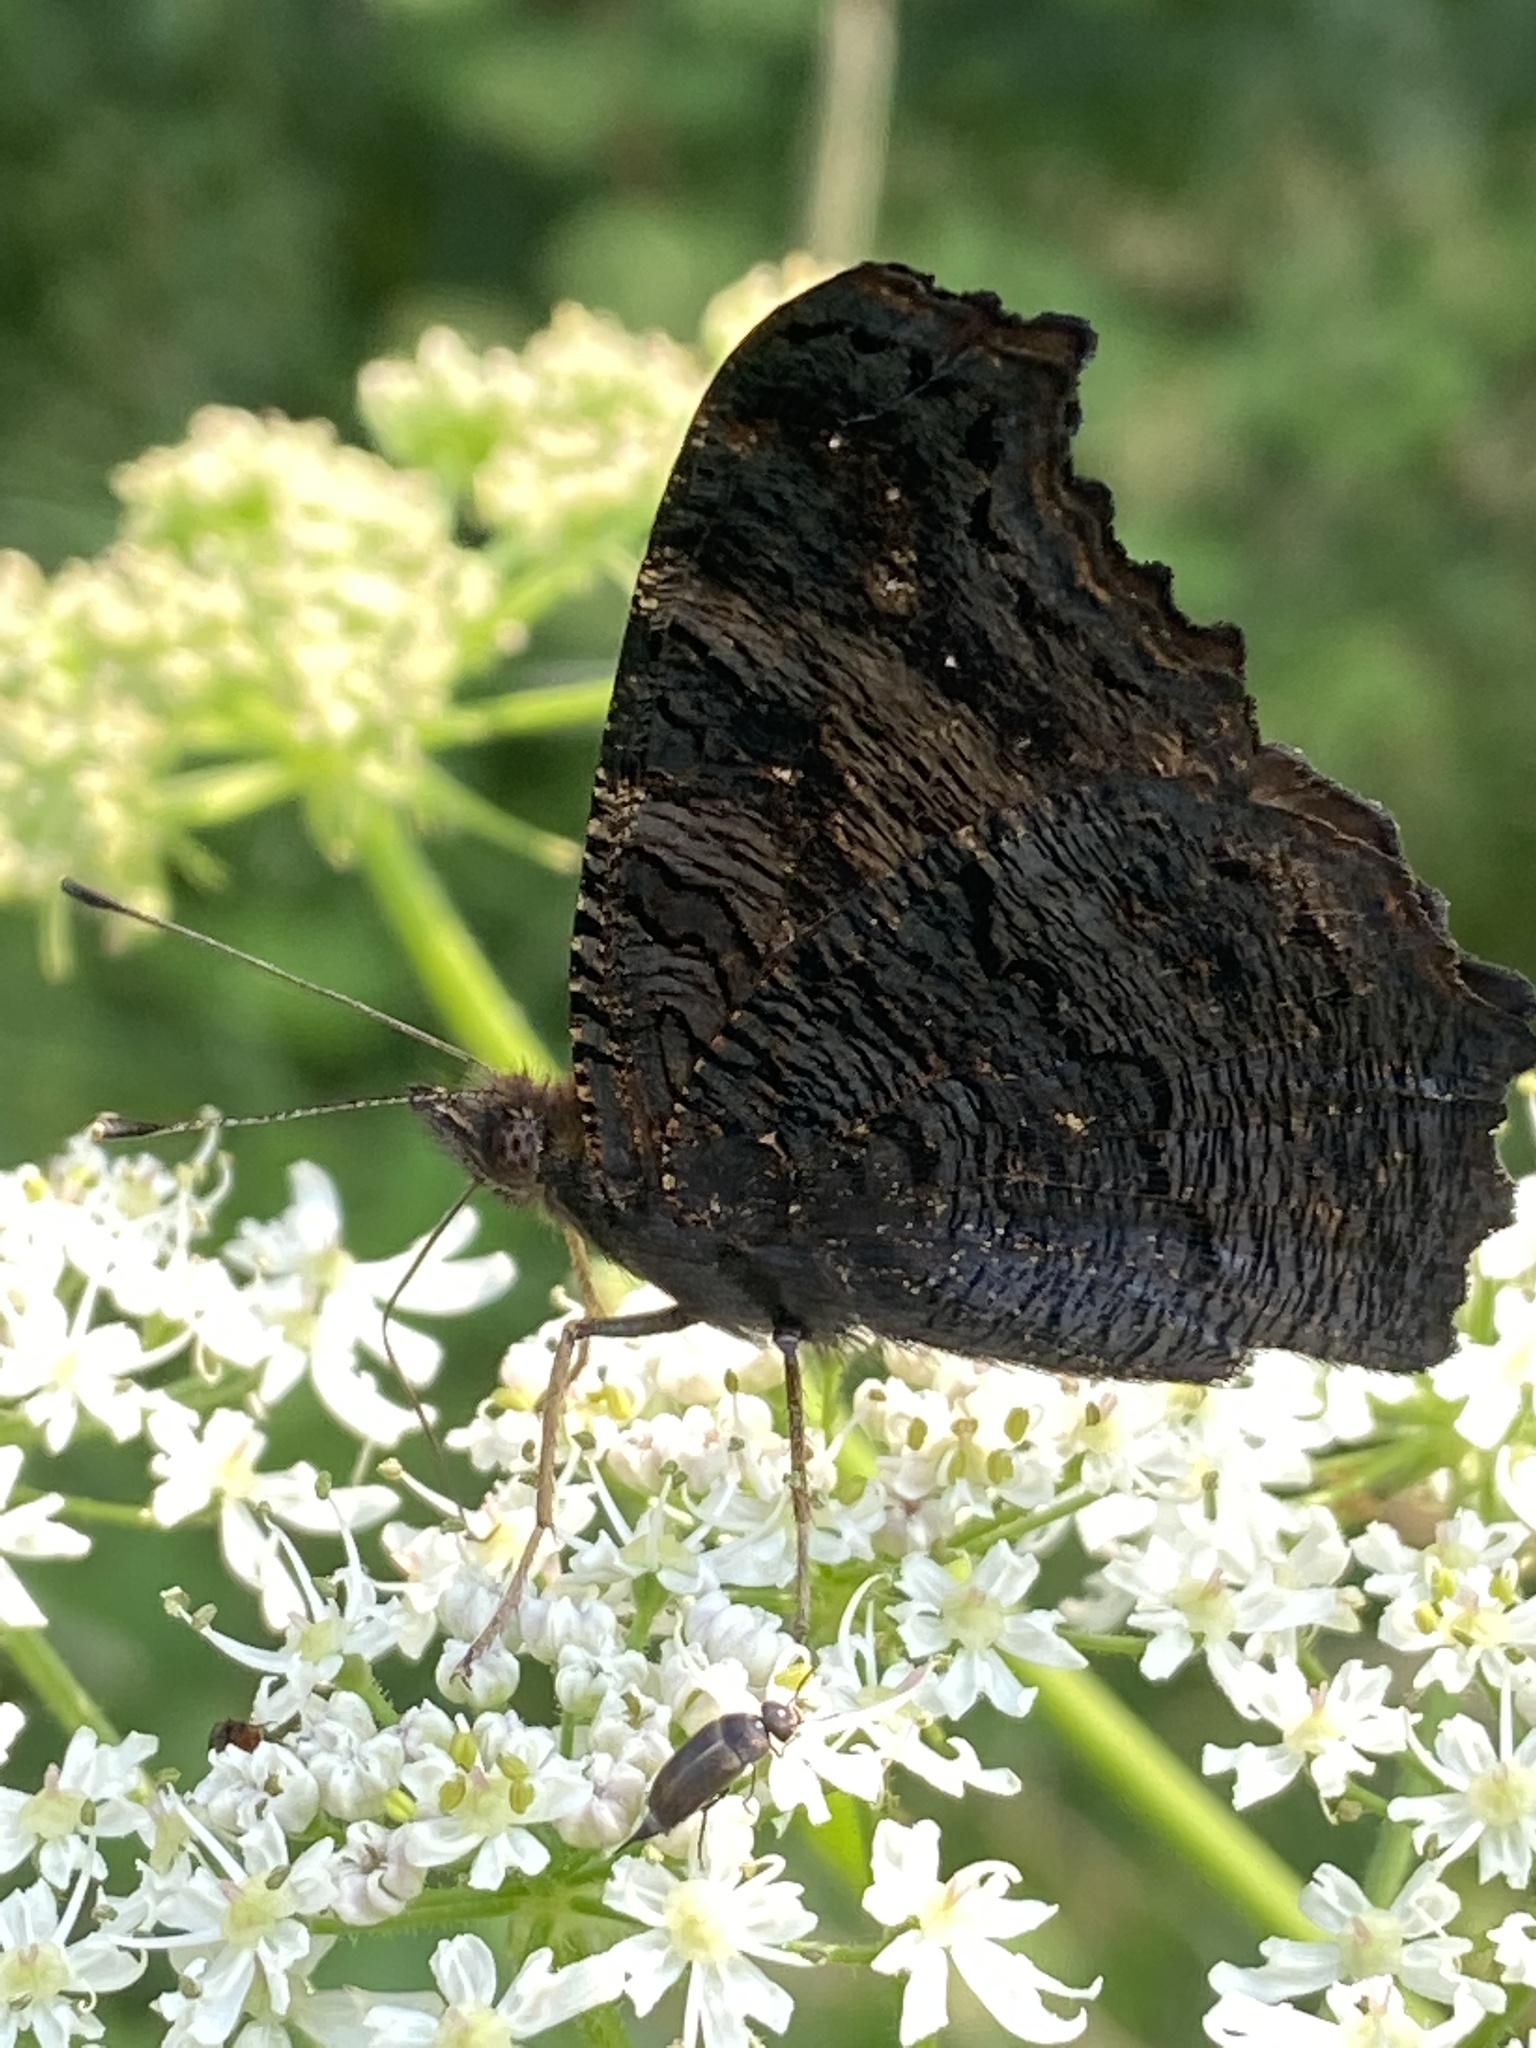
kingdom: Animalia
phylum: Arthropoda
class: Insecta
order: Lepidoptera
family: Nymphalidae
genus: Aglais
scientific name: Aglais io
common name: Peacock
